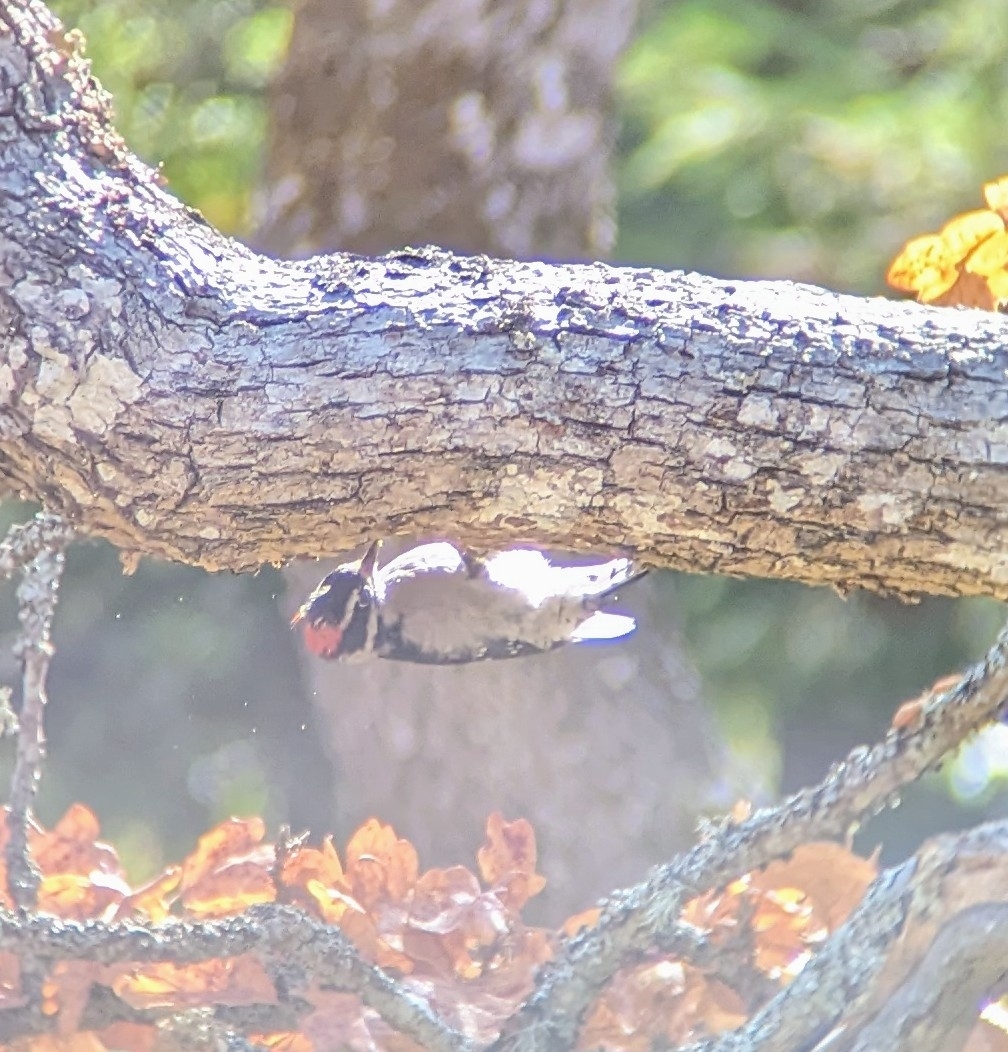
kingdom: Animalia
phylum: Chordata
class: Aves
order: Piciformes
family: Picidae
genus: Dryobates
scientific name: Dryobates pubescens
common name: Downy woodpecker
